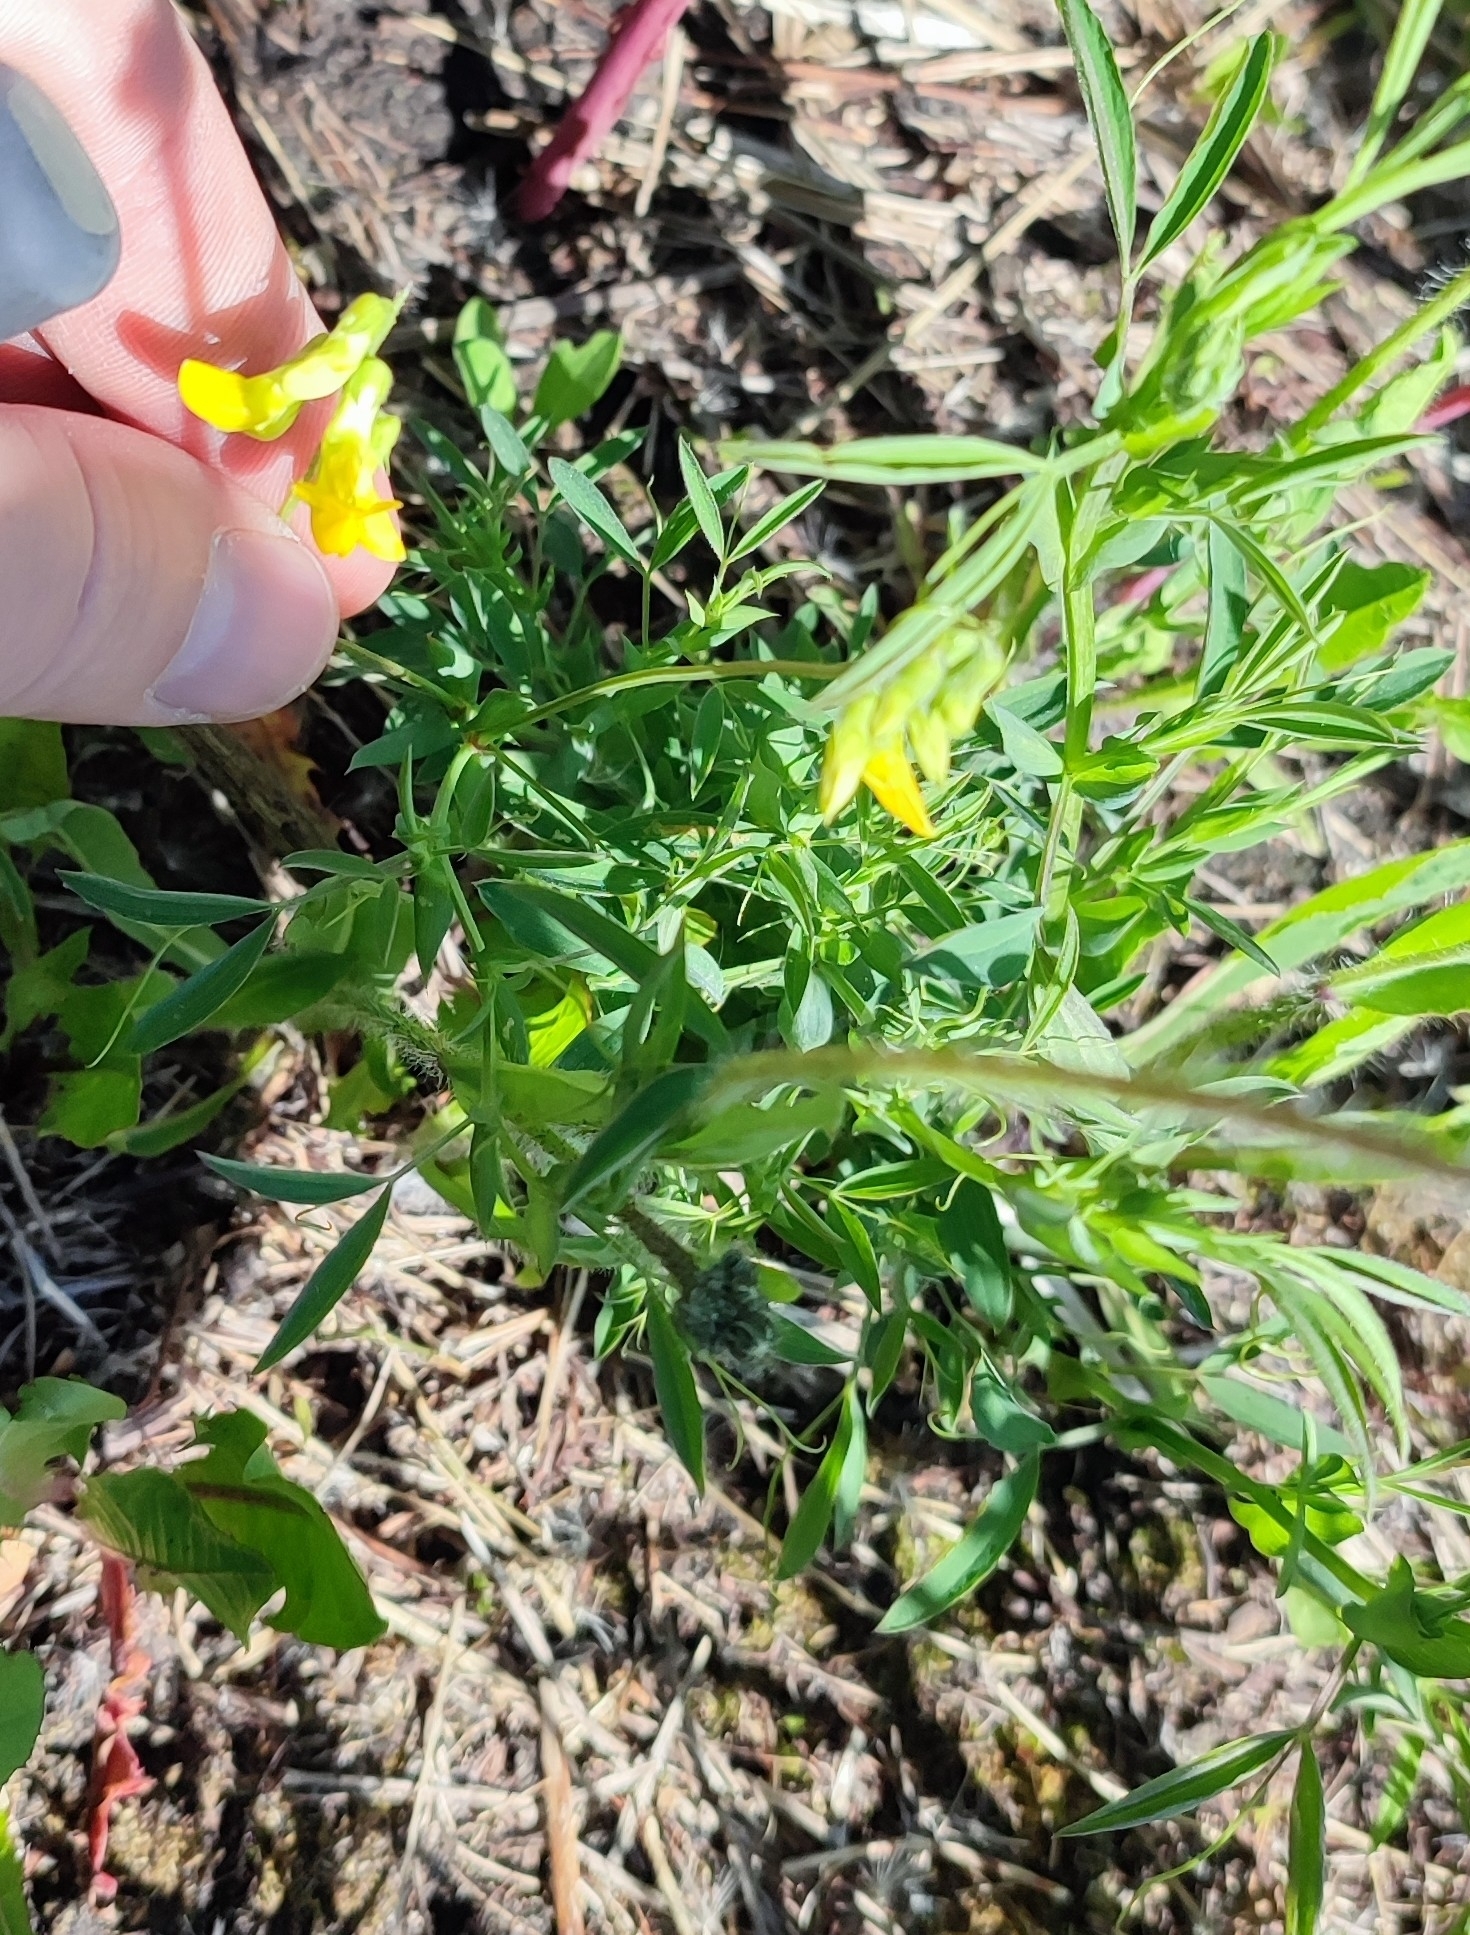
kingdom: Plantae
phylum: Tracheophyta
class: Magnoliopsida
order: Fabales
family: Fabaceae
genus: Lathyrus
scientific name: Lathyrus pratensis
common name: Meadow vetchling
